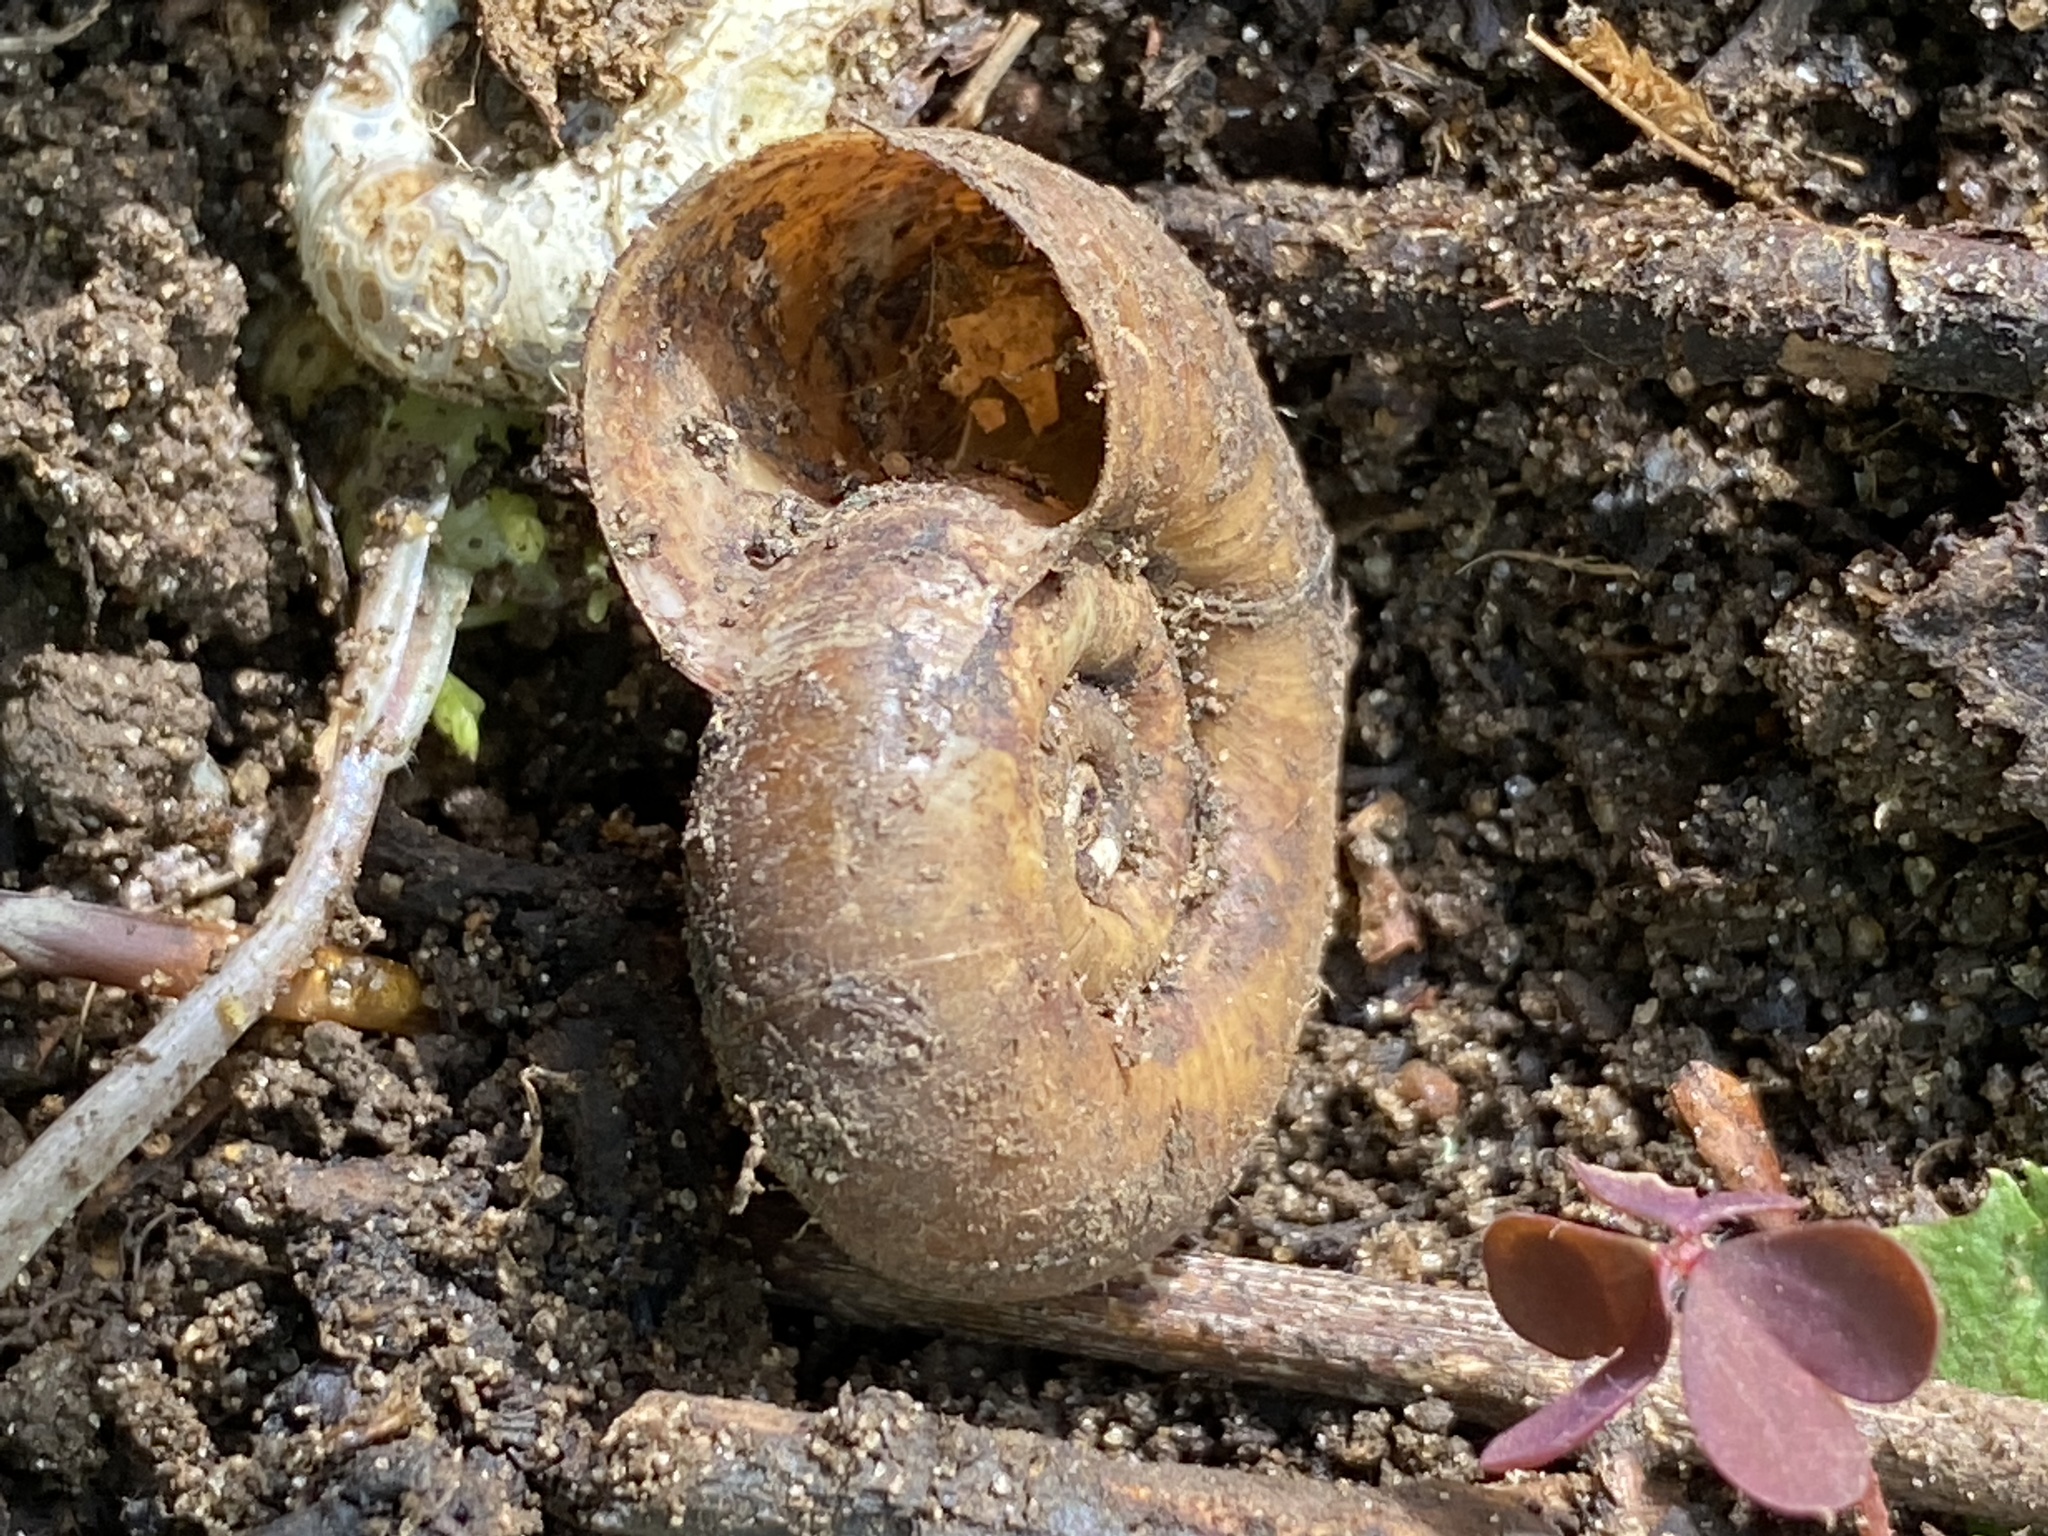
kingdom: Animalia
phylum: Mollusca
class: Gastropoda
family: Planorbidae
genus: Planorbarius
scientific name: Planorbarius corneus
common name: Great ramshorn
